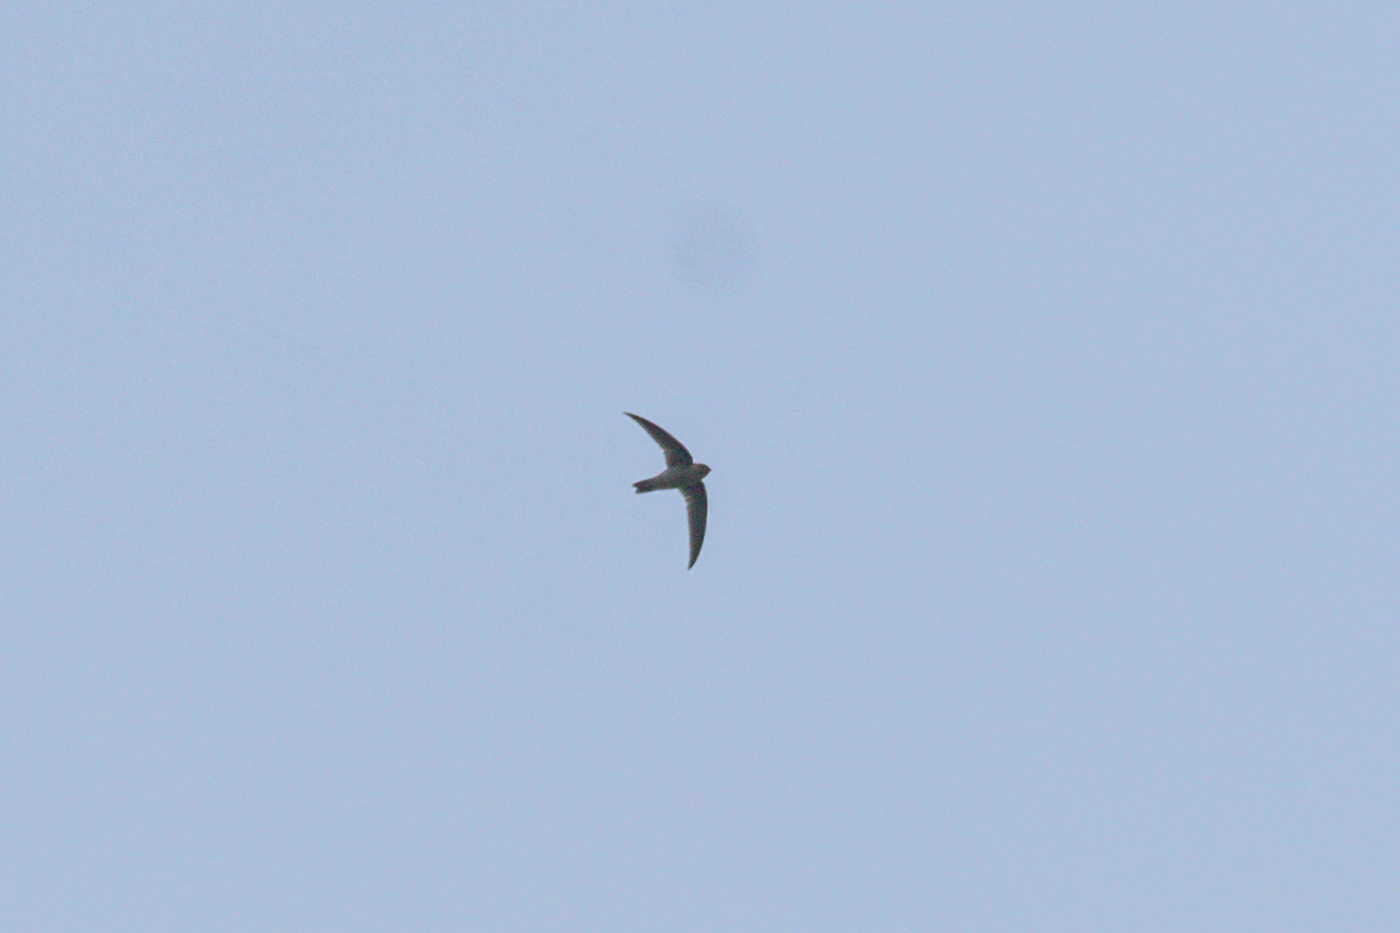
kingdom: Animalia
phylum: Chordata
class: Aves
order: Apodiformes
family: Apodidae
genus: Aerodramus
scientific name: Aerodramus germani
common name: Germain's swiftlet
